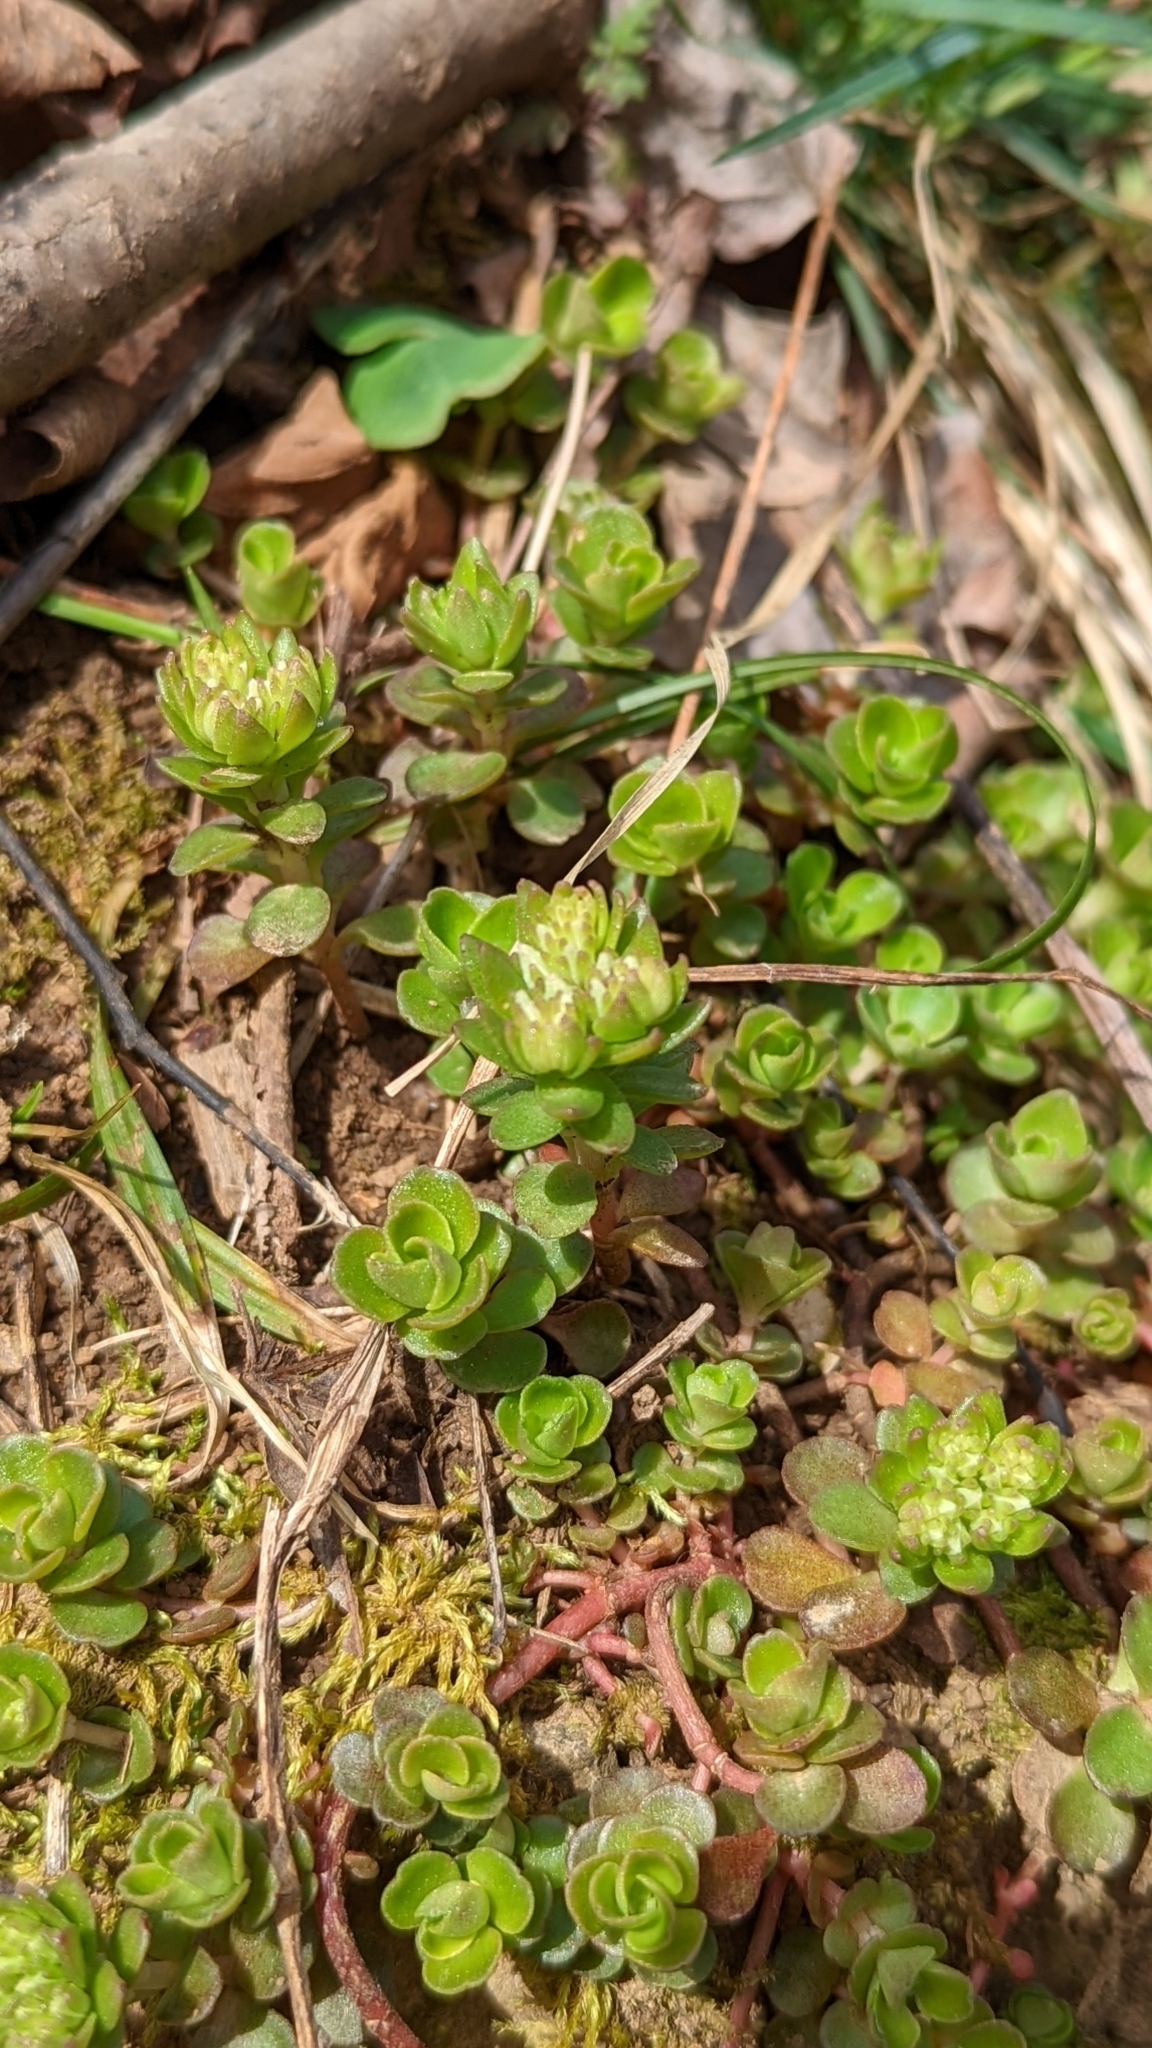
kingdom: Plantae
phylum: Tracheophyta
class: Magnoliopsida
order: Saxifragales
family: Crassulaceae
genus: Sedum
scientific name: Sedum ternatum
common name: Wild stonecrop
